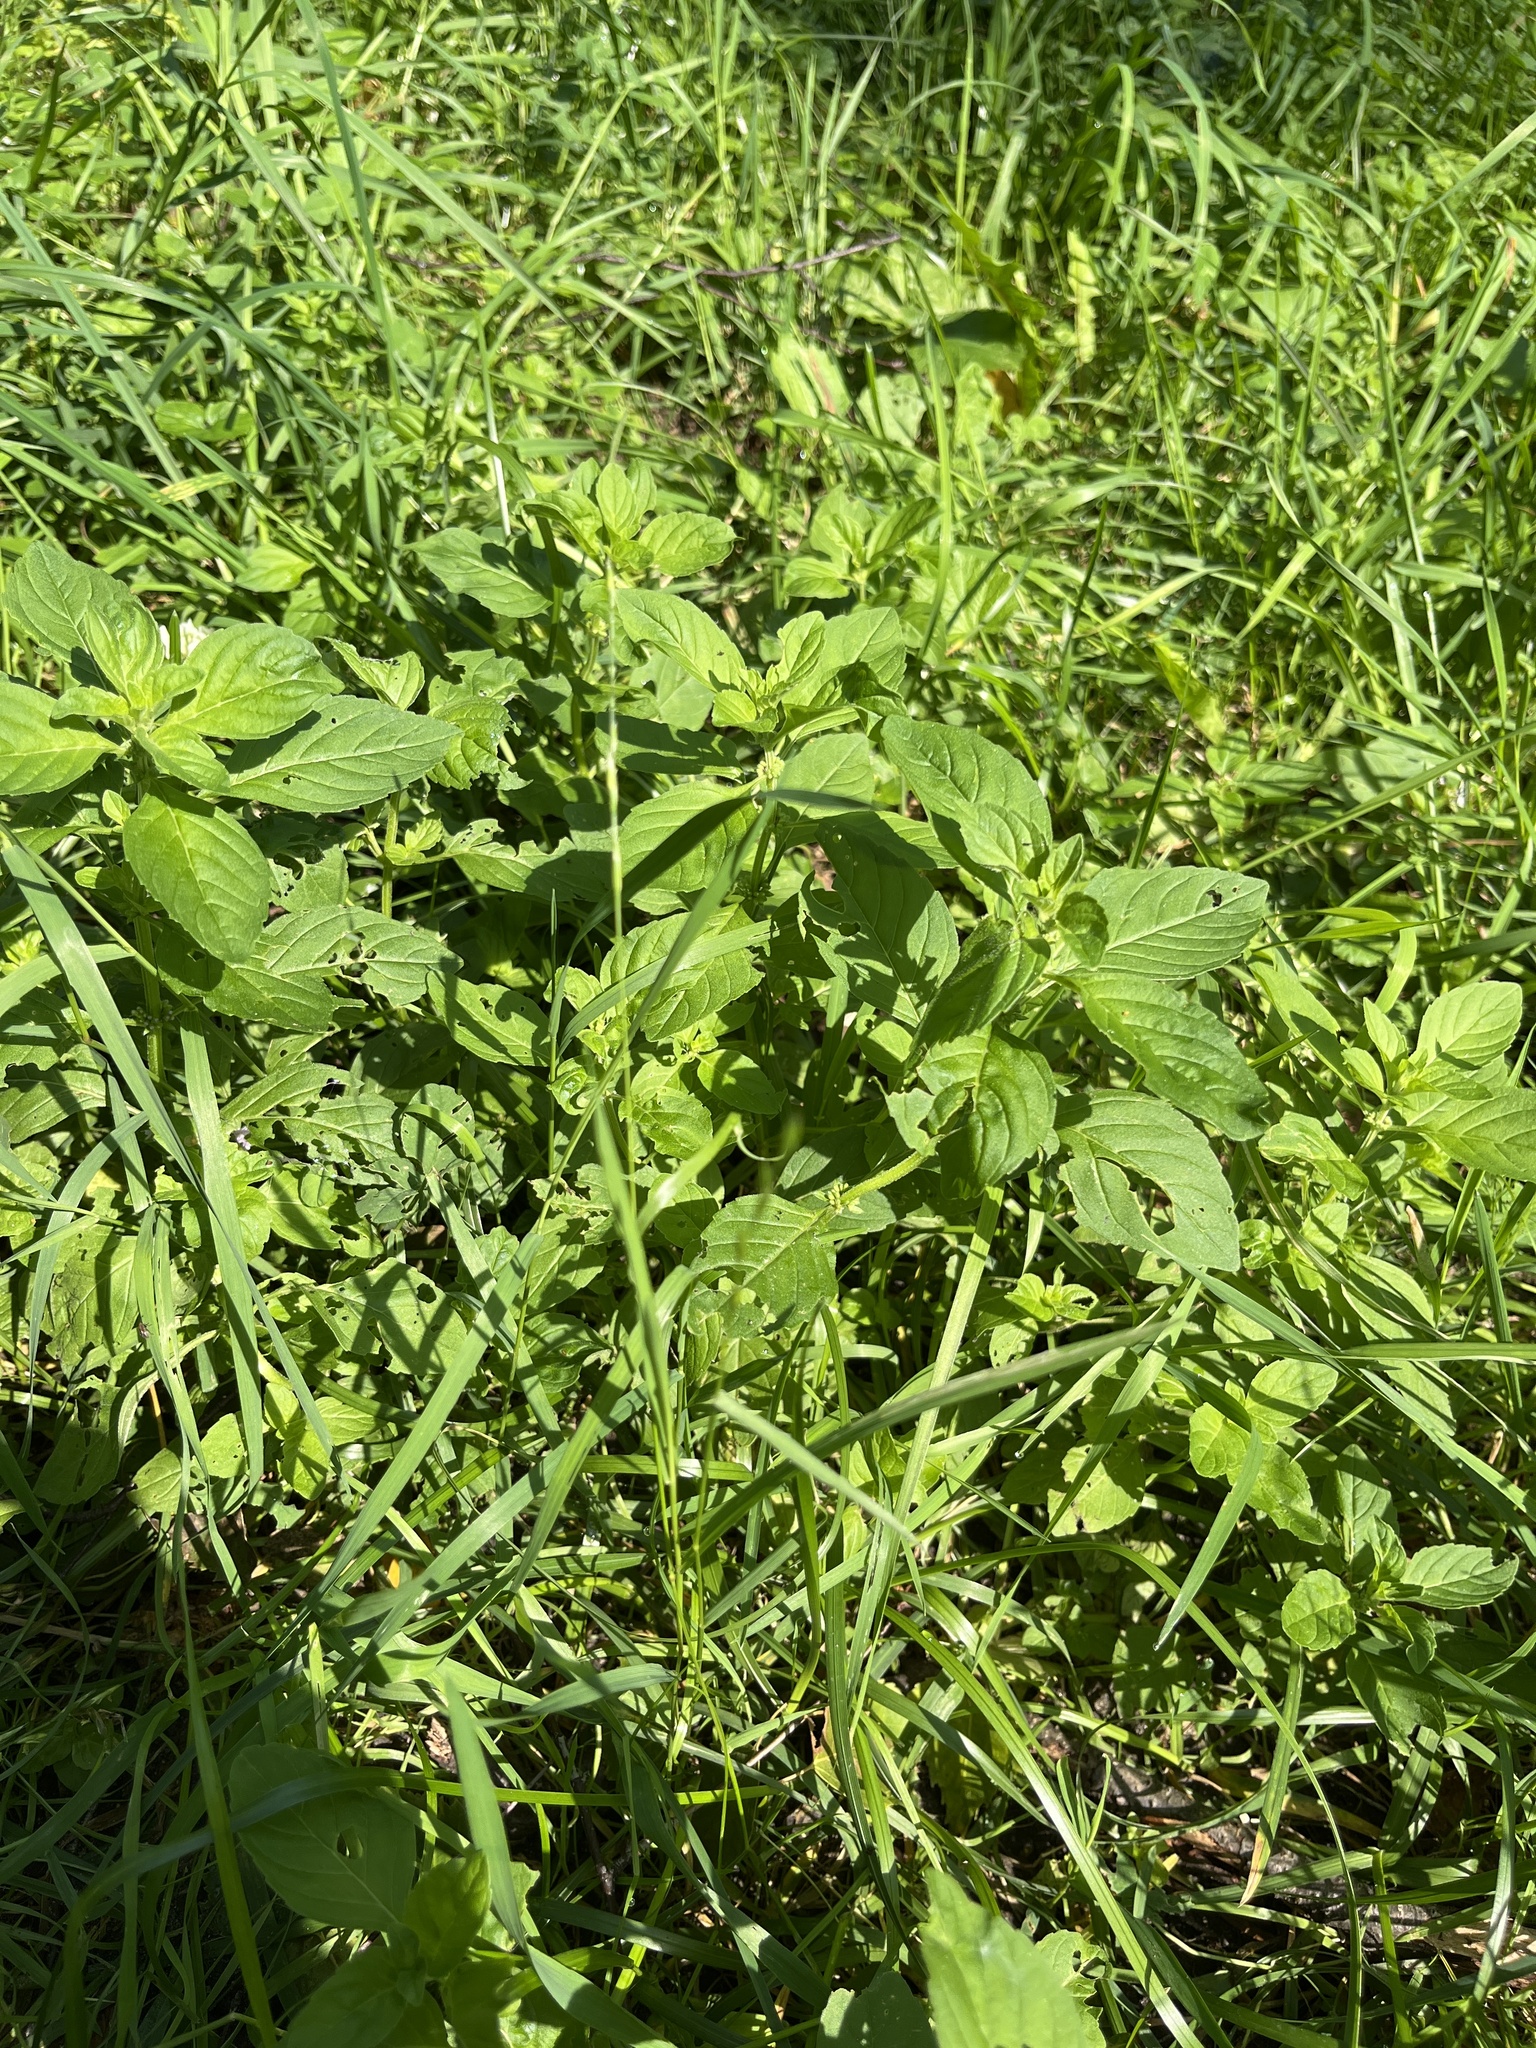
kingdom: Plantae
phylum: Tracheophyta
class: Magnoliopsida
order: Lamiales
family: Lamiaceae
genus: Mentha
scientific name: Mentha arvensis
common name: Corn mint
